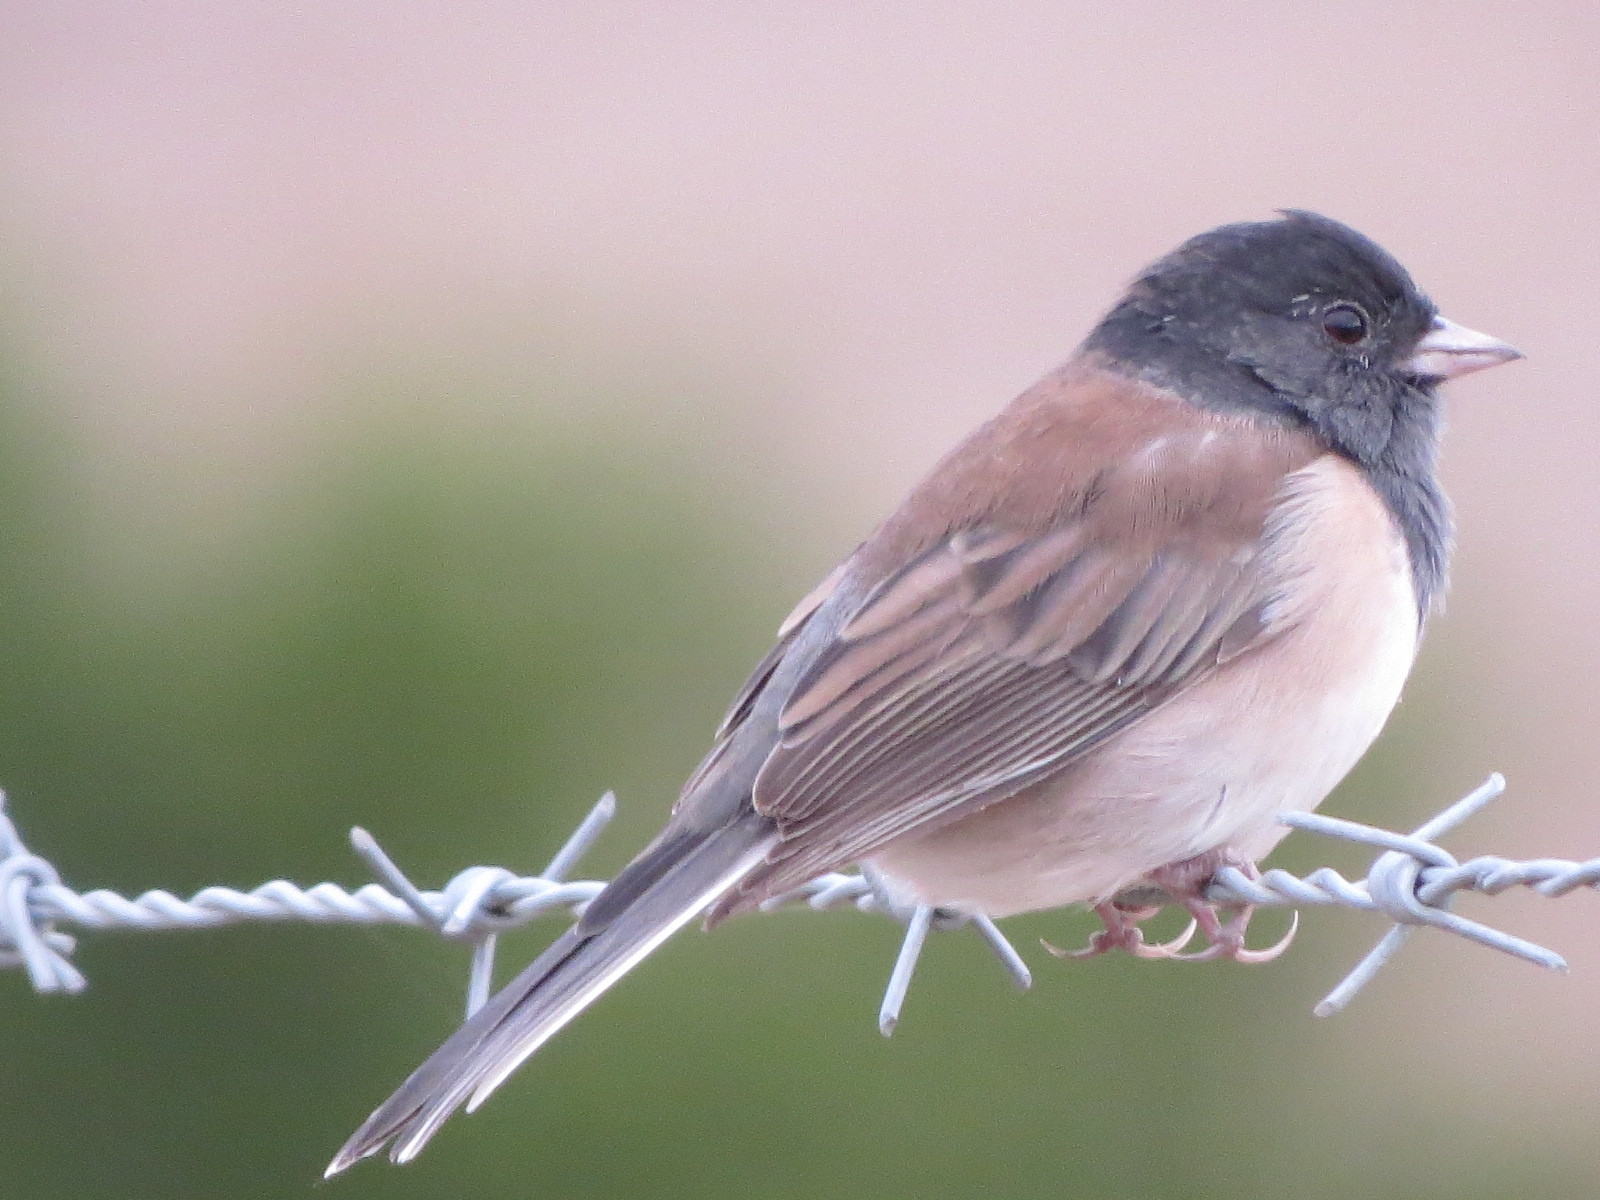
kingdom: Animalia
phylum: Chordata
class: Aves
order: Passeriformes
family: Passerellidae
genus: Junco
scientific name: Junco hyemalis
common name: Dark-eyed junco
